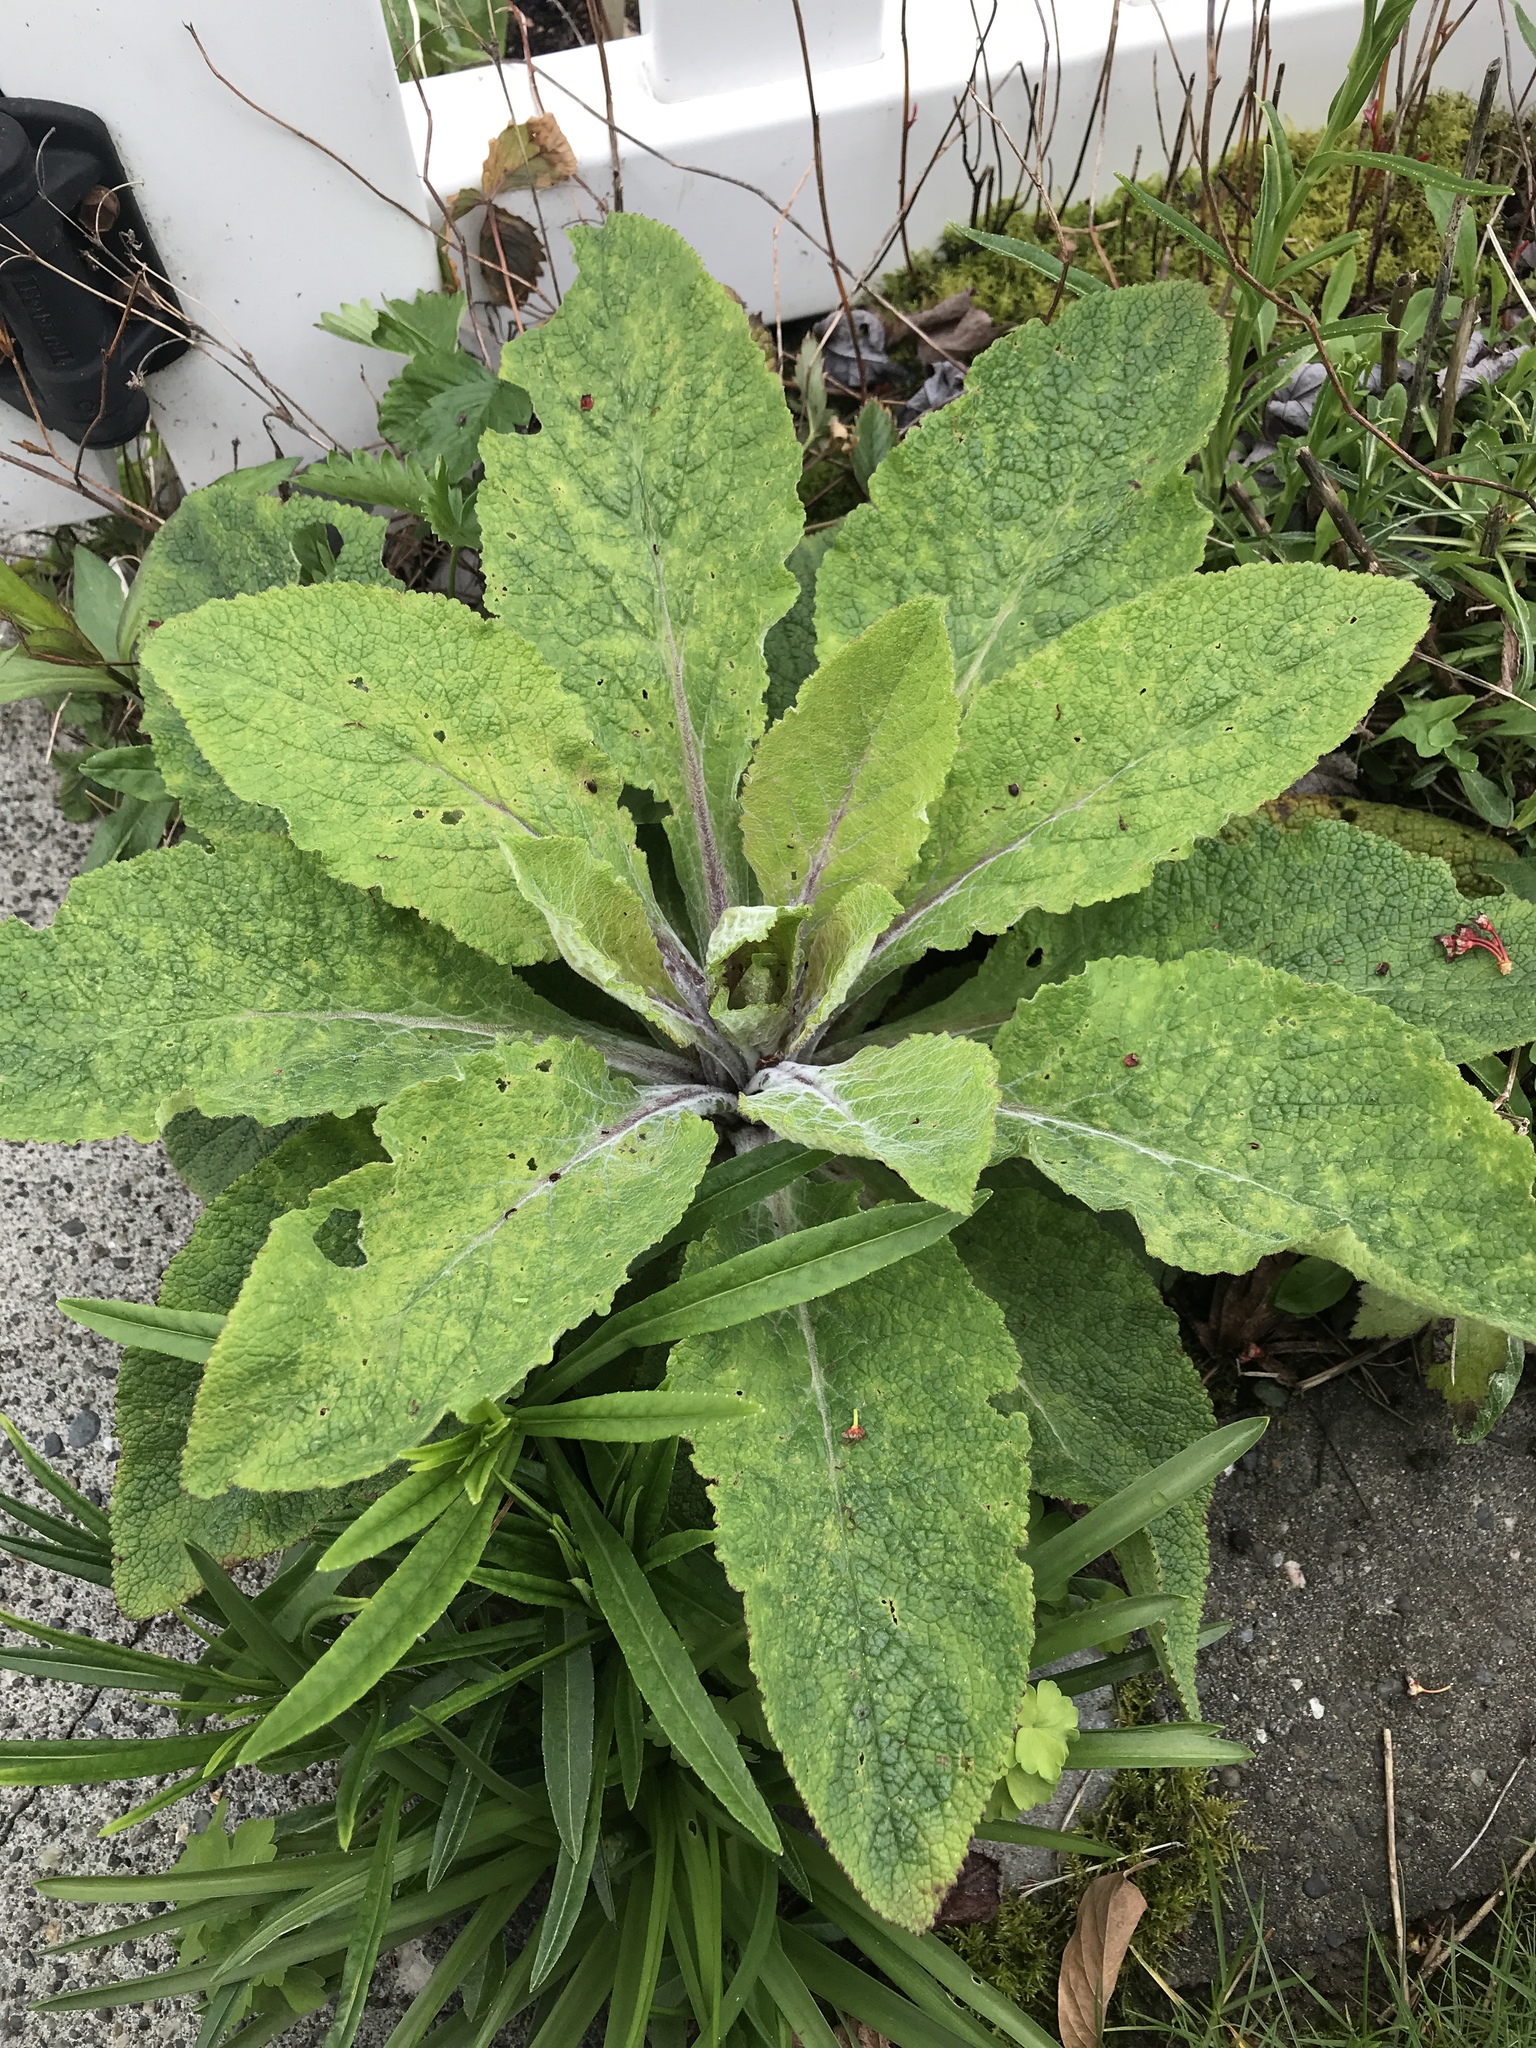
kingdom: Plantae
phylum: Tracheophyta
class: Magnoliopsida
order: Lamiales
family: Plantaginaceae
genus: Digitalis
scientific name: Digitalis purpurea
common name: Foxglove
